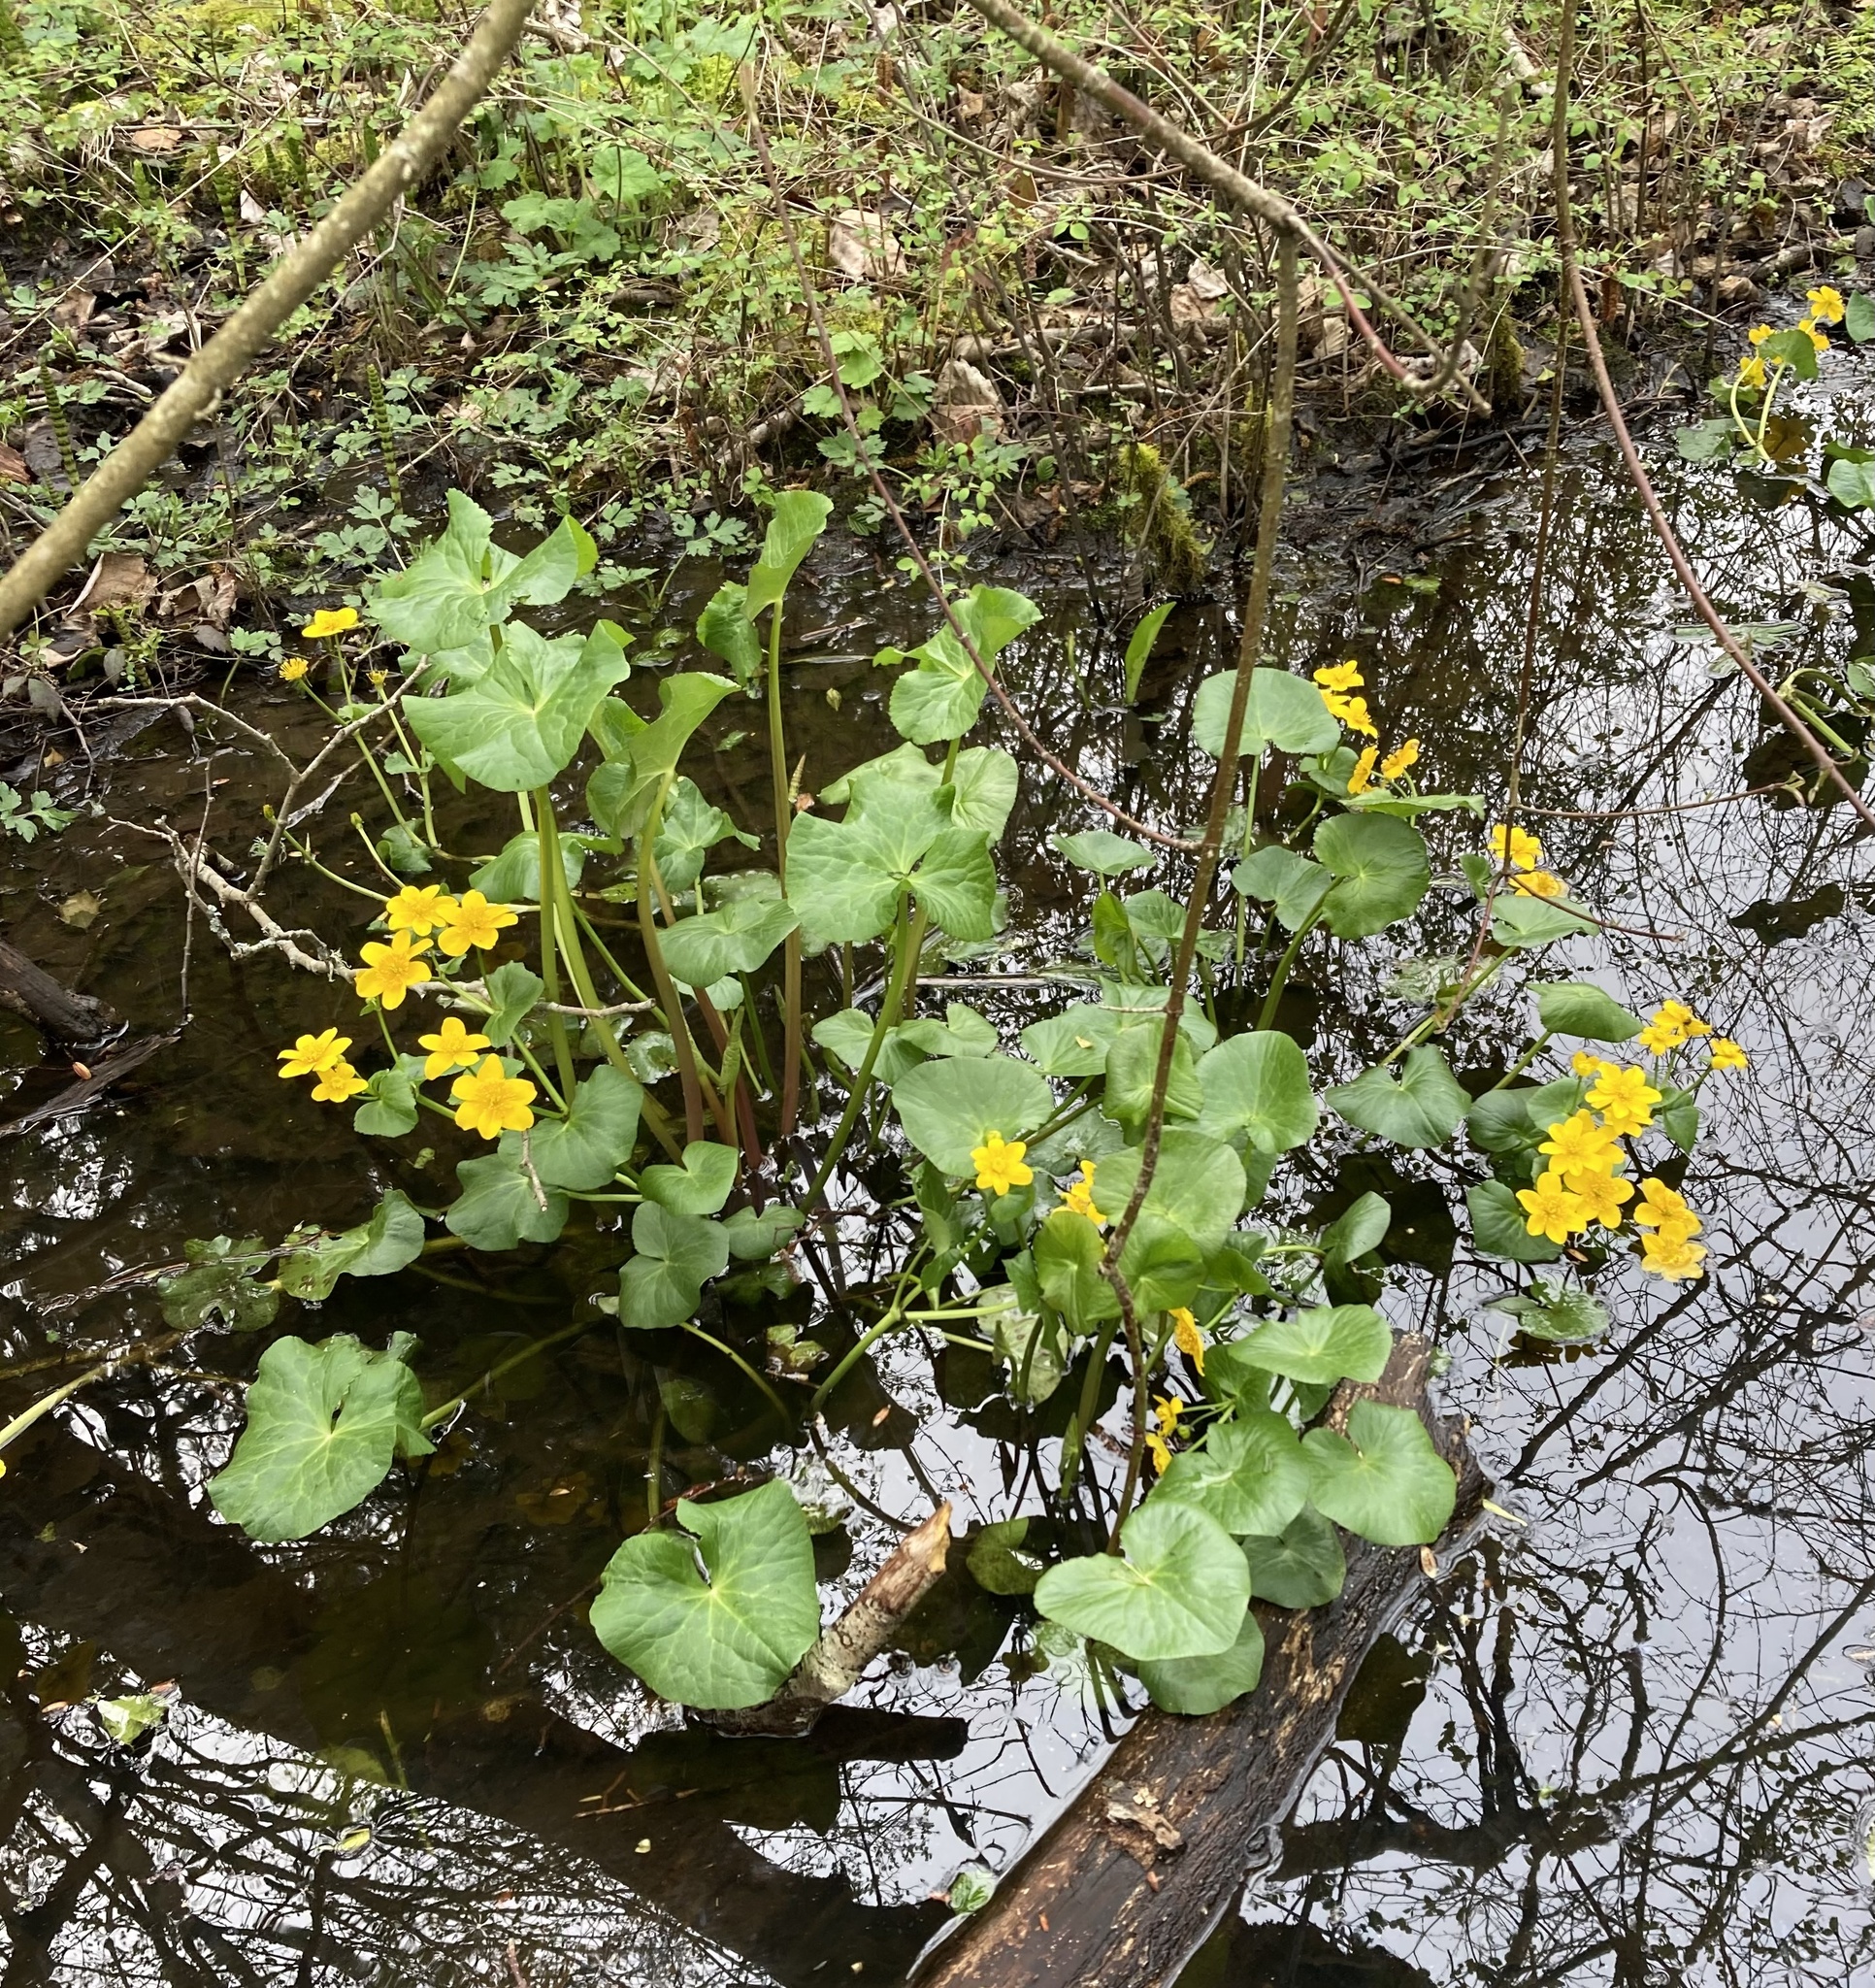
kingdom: Plantae
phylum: Tracheophyta
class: Magnoliopsida
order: Ranunculales
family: Ranunculaceae
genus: Caltha
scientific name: Caltha palustris
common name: Marsh marigold
